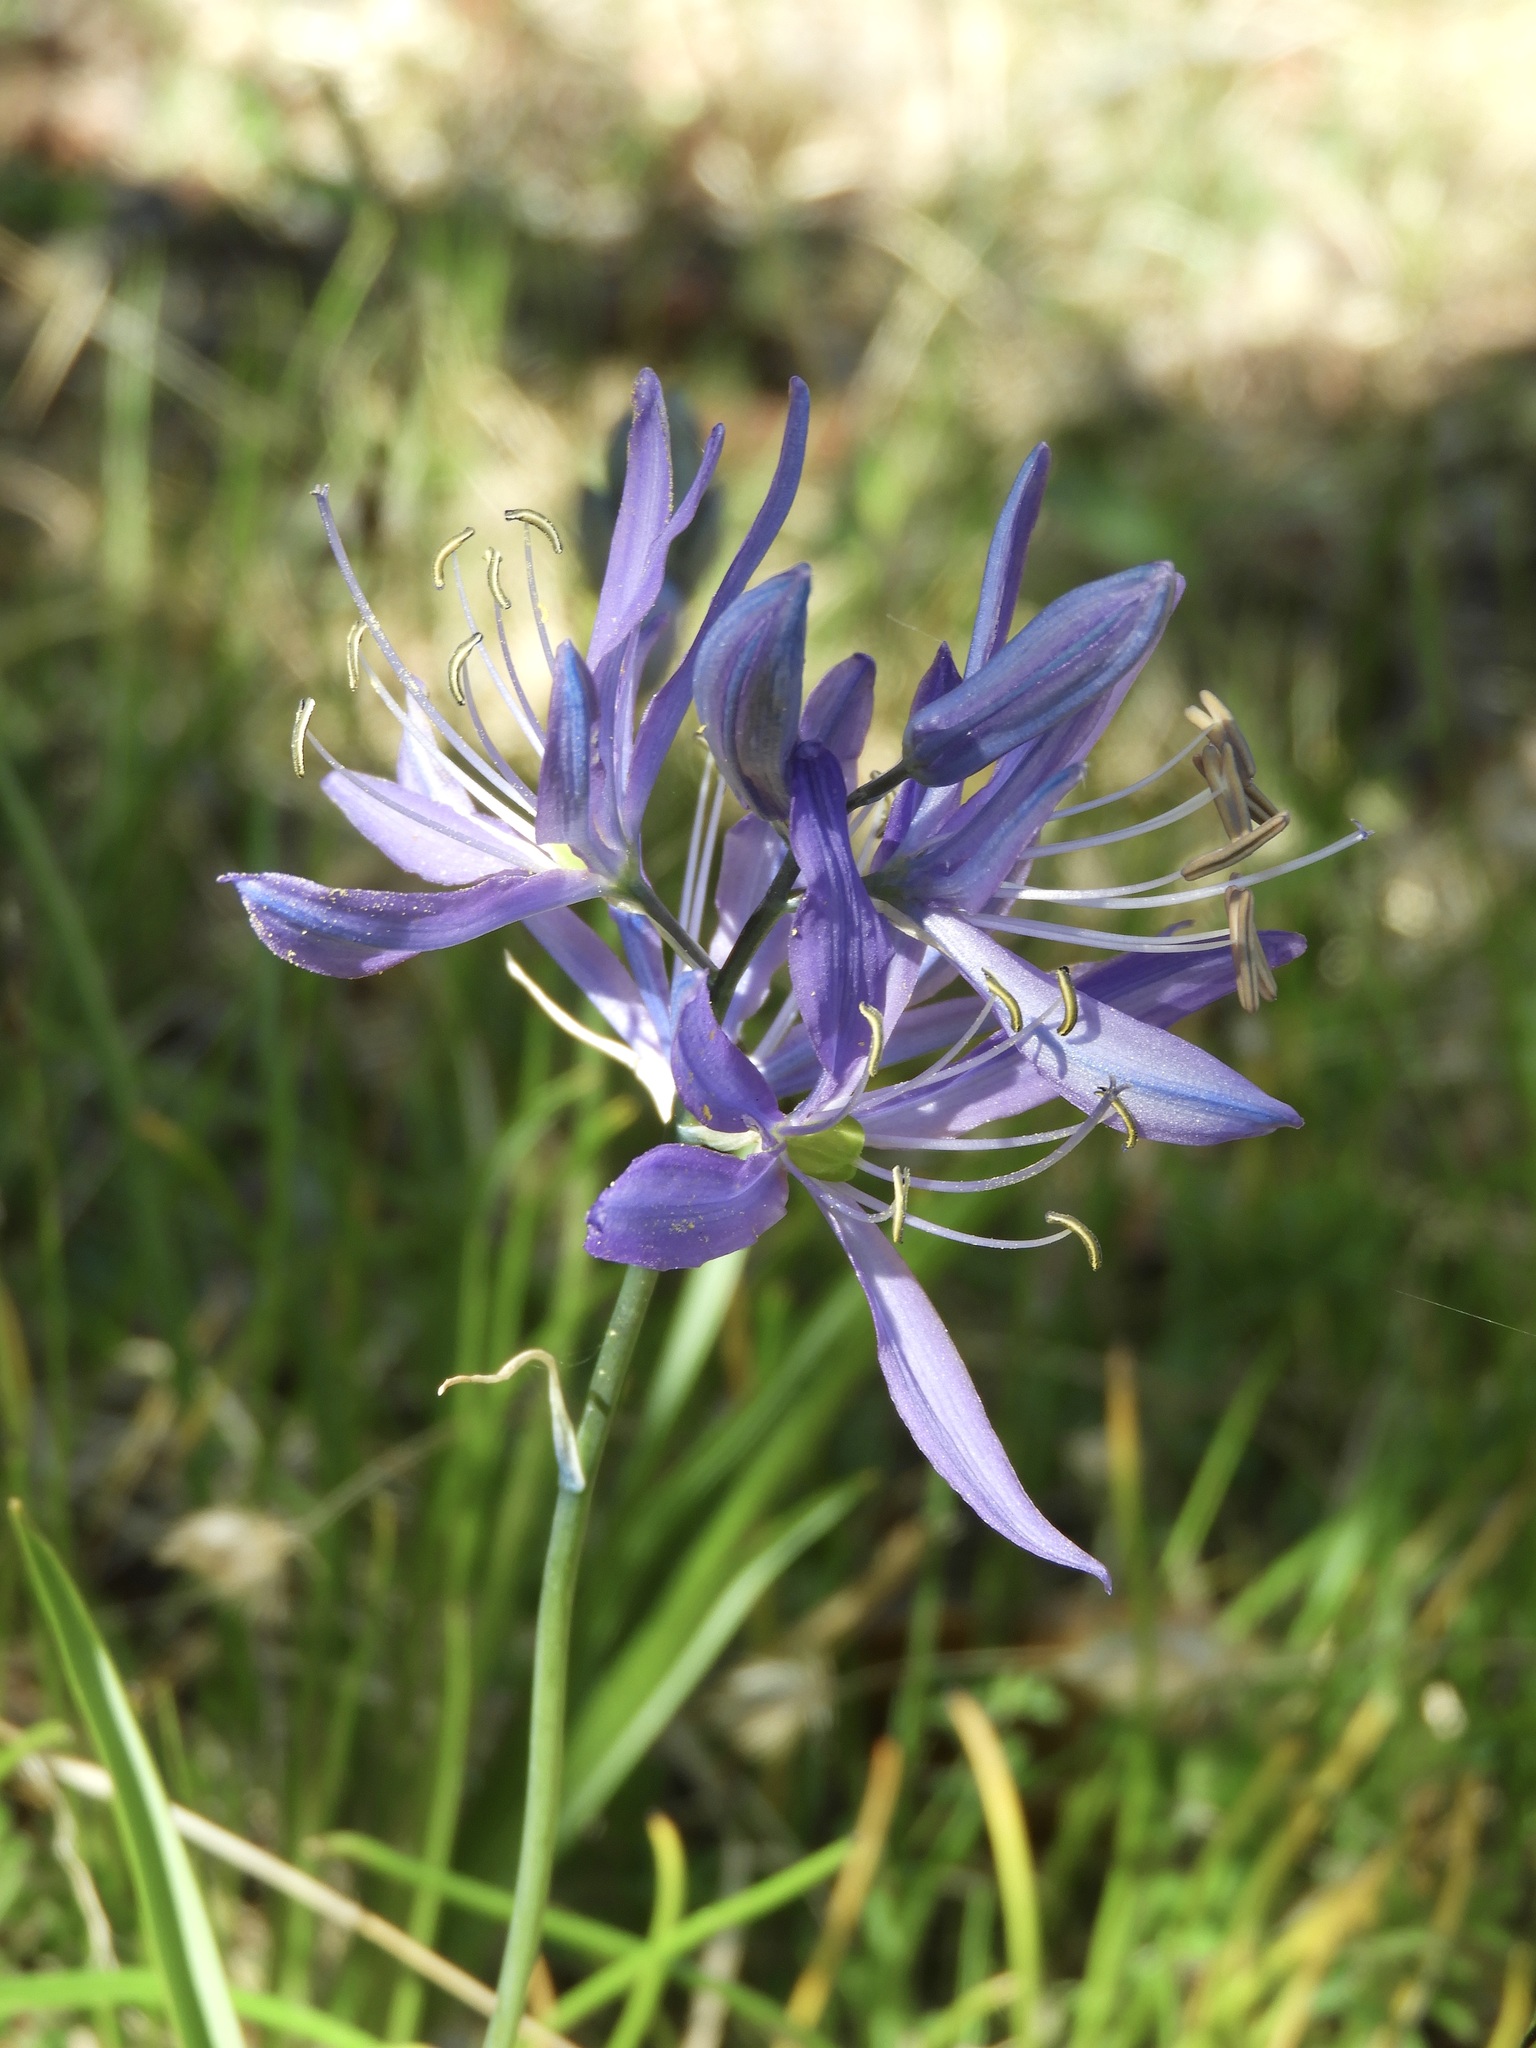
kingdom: Plantae
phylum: Tracheophyta
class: Liliopsida
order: Asparagales
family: Asparagaceae
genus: Camassia
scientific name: Camassia quamash
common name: Common camas
